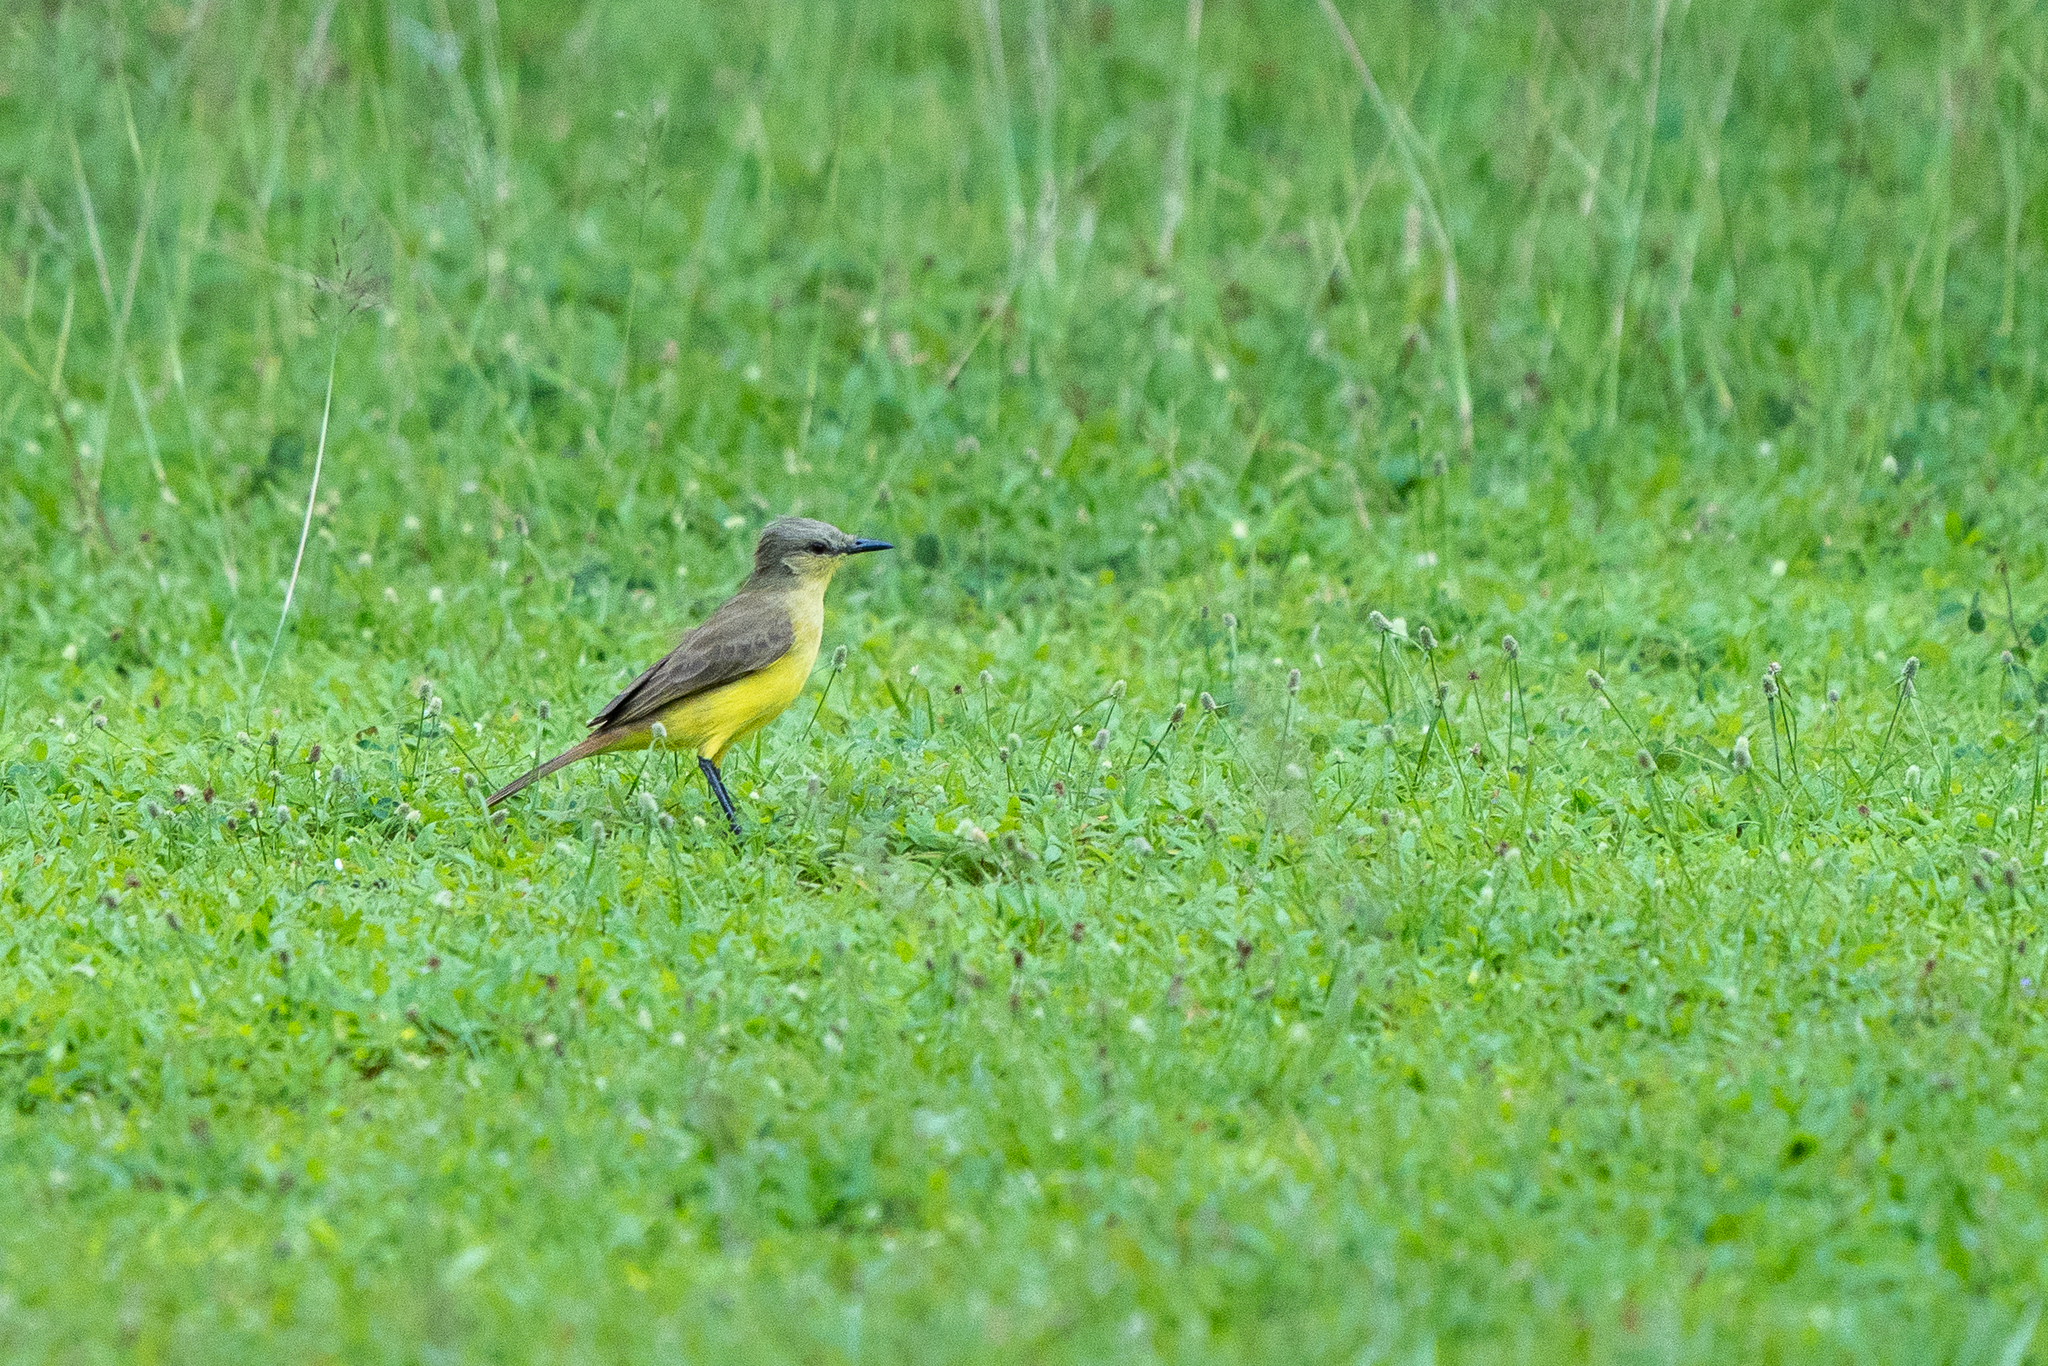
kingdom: Animalia
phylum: Chordata
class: Aves
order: Passeriformes
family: Tyrannidae
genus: Machetornis
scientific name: Machetornis rixosa
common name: Cattle tyrant
